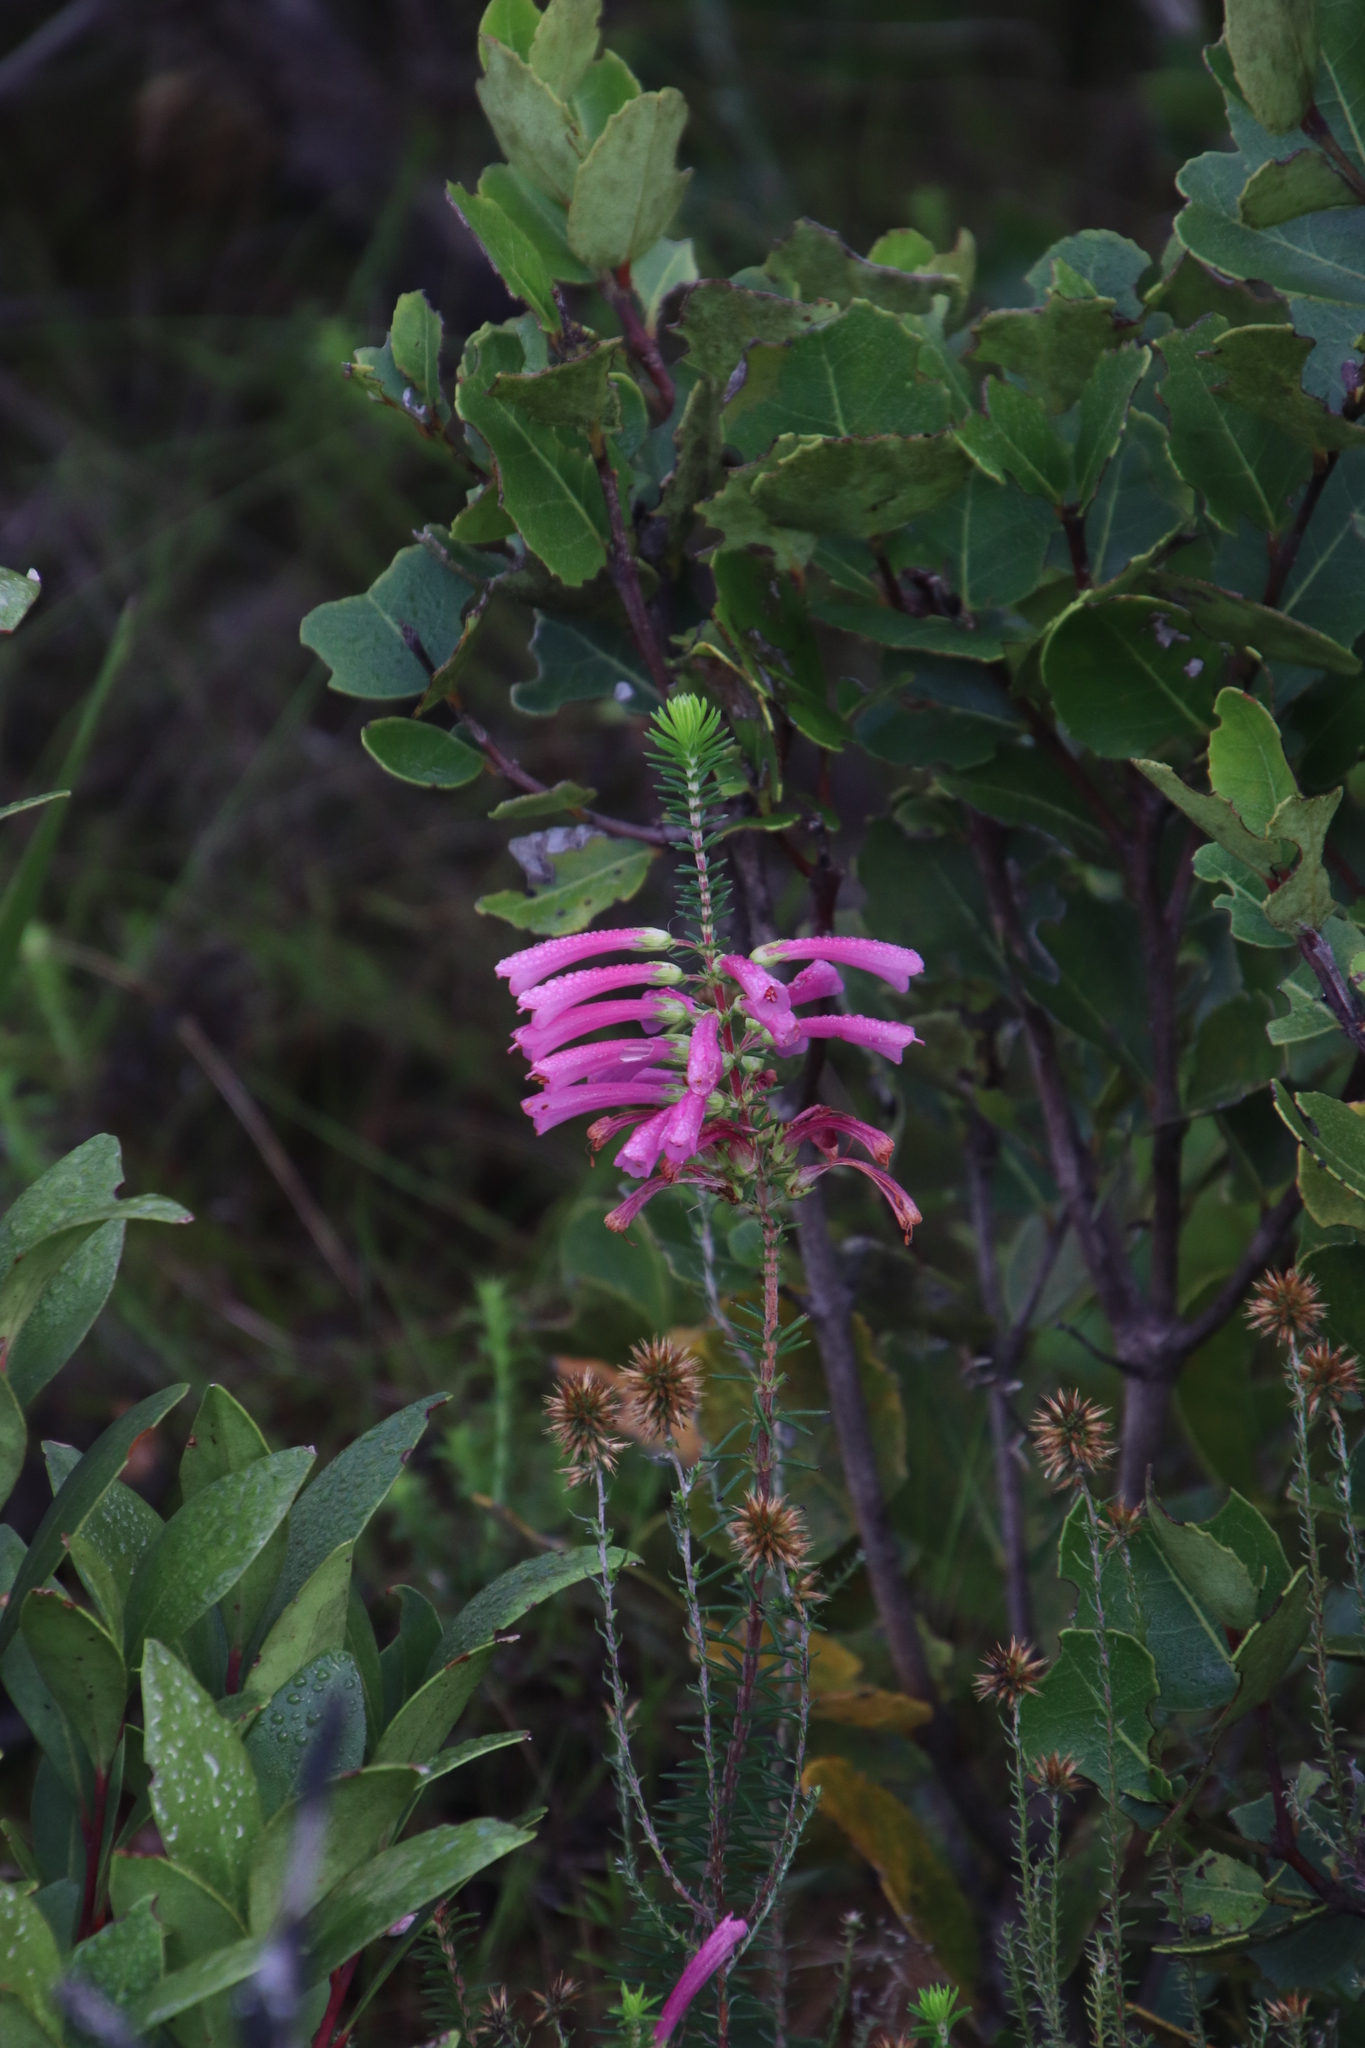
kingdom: Plantae
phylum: Tracheophyta
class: Magnoliopsida
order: Ericales
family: Ericaceae
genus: Erica
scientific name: Erica abietina
